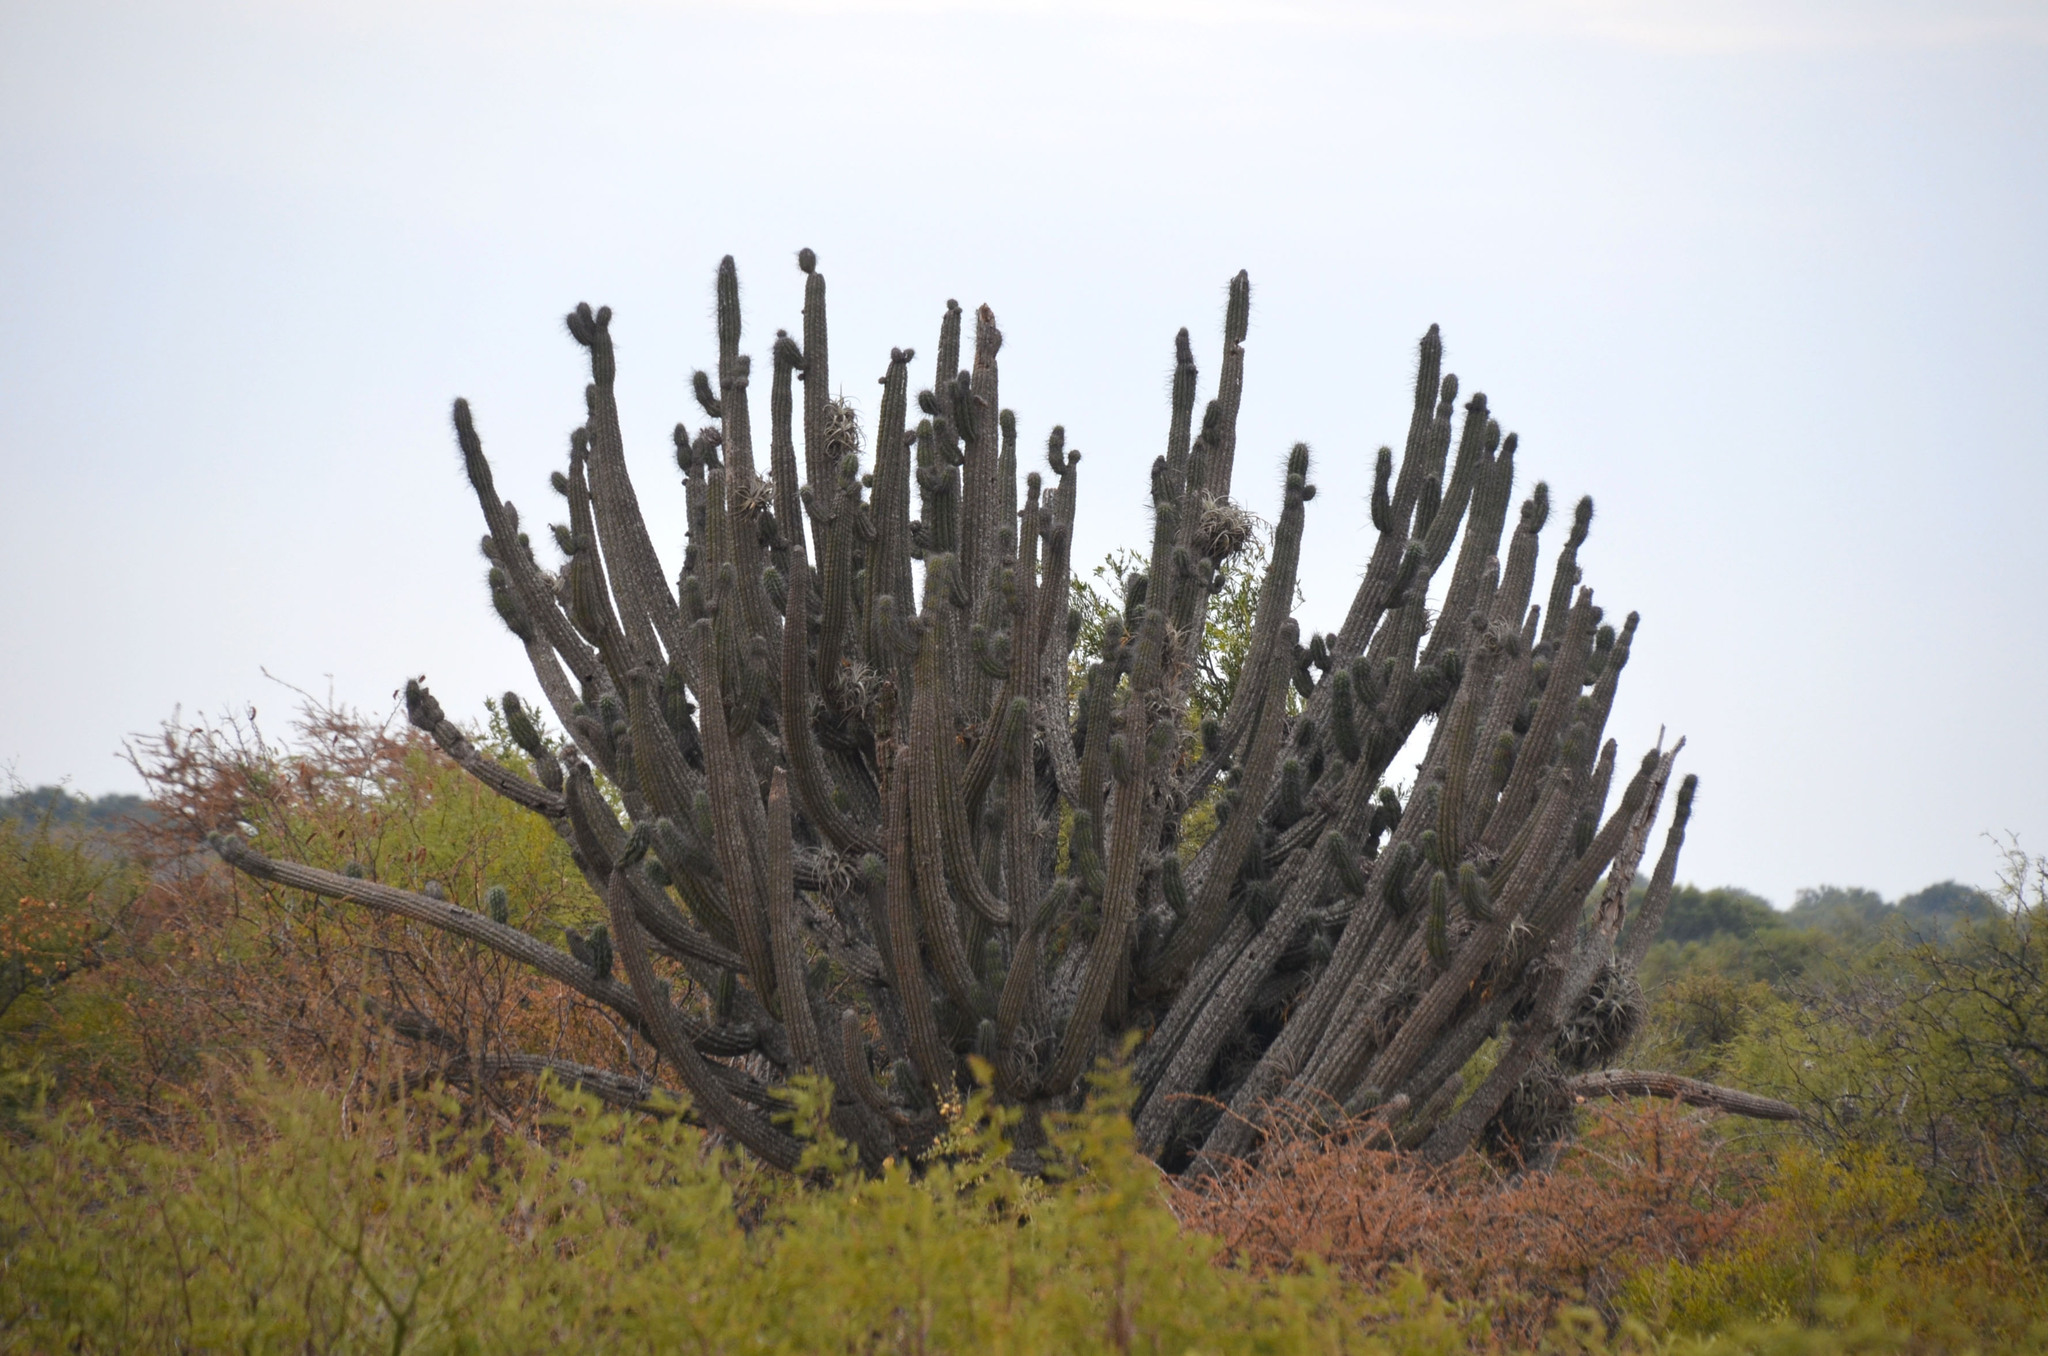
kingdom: Plantae
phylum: Tracheophyta
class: Magnoliopsida
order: Caryophyllales
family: Cactaceae
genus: Stetsonia
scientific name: Stetsonia coryne
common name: Toothpick cactus
